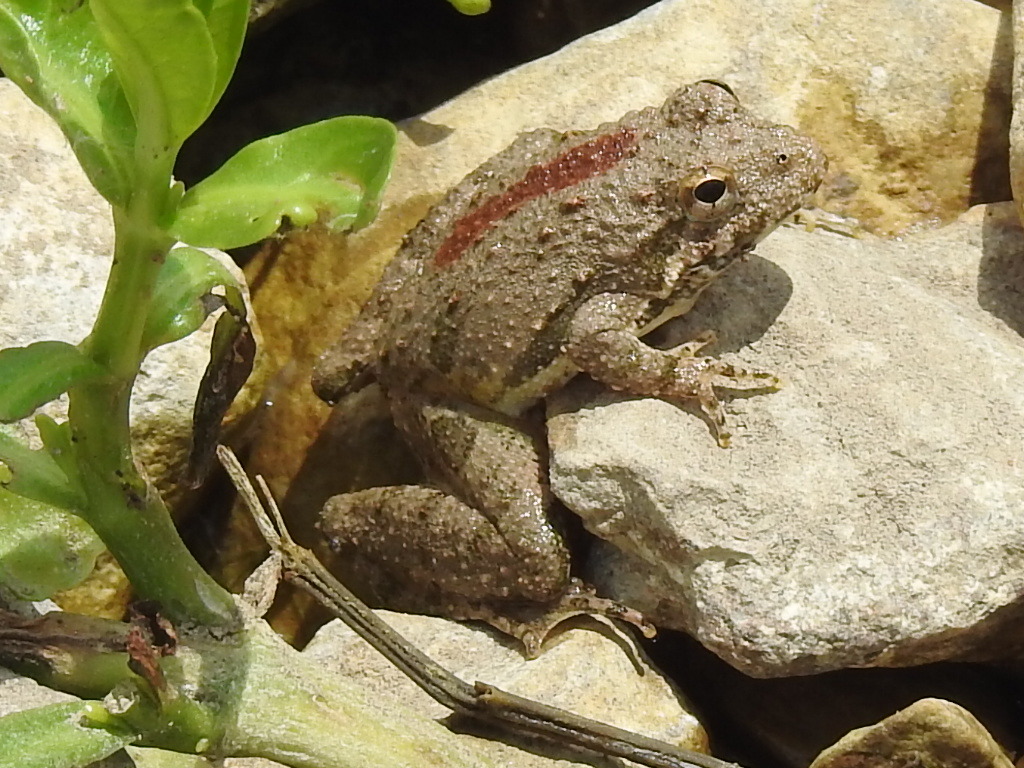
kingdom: Animalia
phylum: Chordata
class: Amphibia
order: Anura
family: Hylidae
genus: Acris
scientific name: Acris blanchardi
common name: Blanchard's cricket frog
